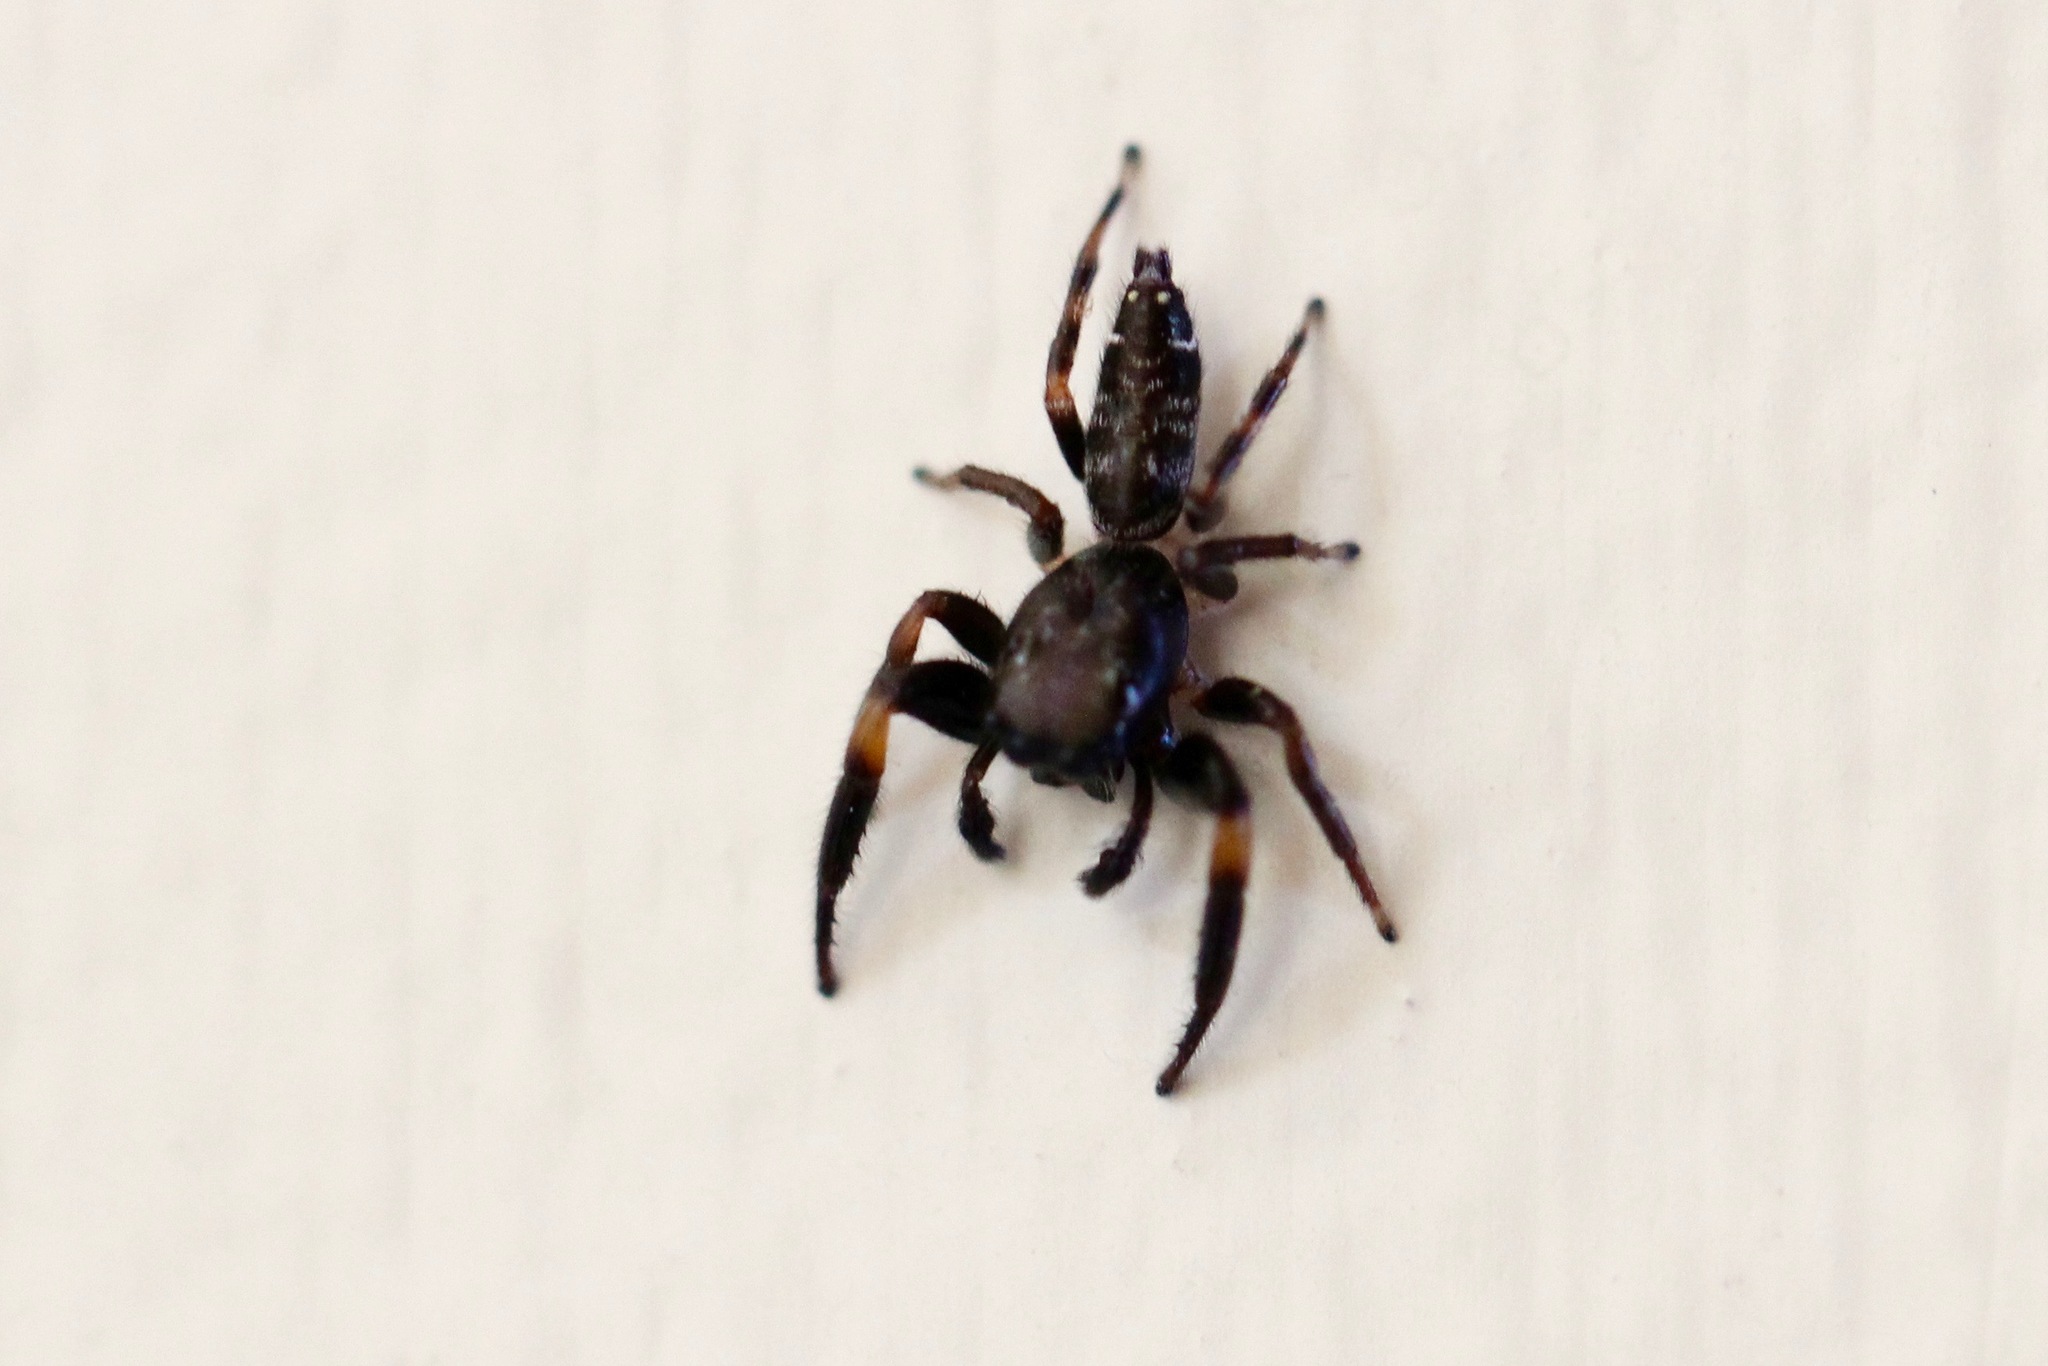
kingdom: Animalia
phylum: Arthropoda
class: Arachnida
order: Araneae
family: Salticidae
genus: Pungalina
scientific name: Pungalina plurilineata
